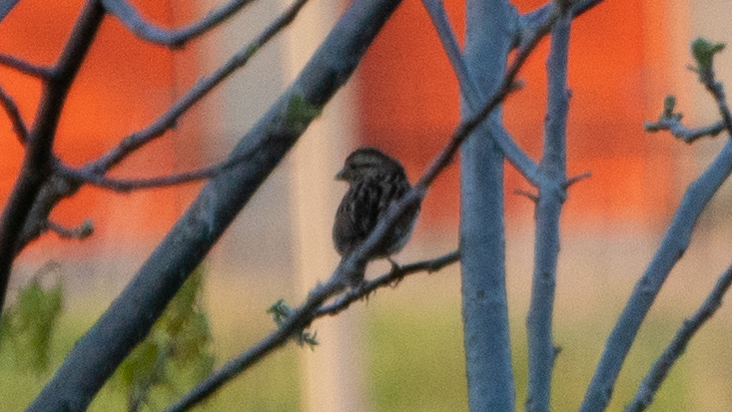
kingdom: Animalia
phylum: Chordata
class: Aves
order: Passeriformes
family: Passerellidae
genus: Melospiza
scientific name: Melospiza melodia
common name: Song sparrow
